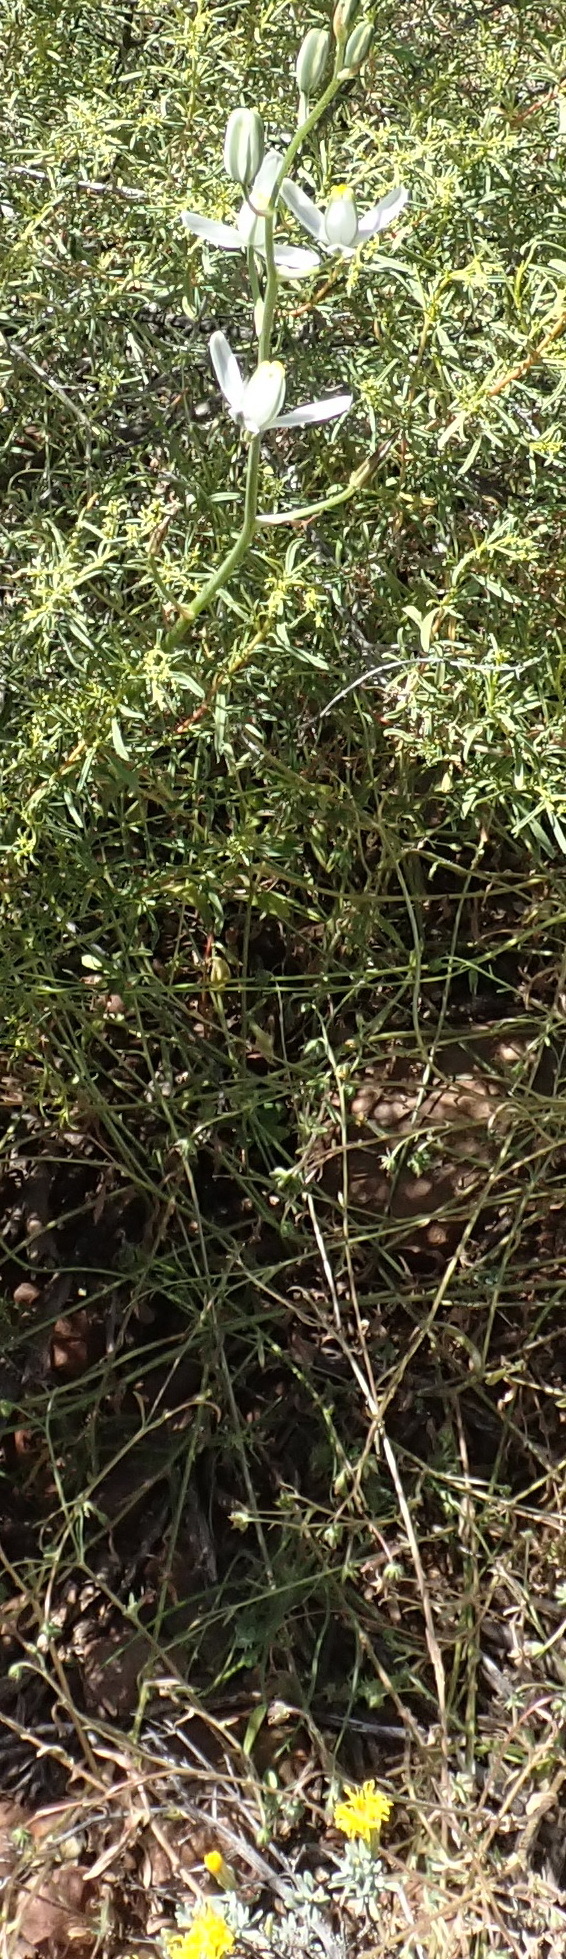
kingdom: Plantae
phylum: Tracheophyta
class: Liliopsida
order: Asparagales
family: Asparagaceae
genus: Albuca
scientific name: Albuca longipes
